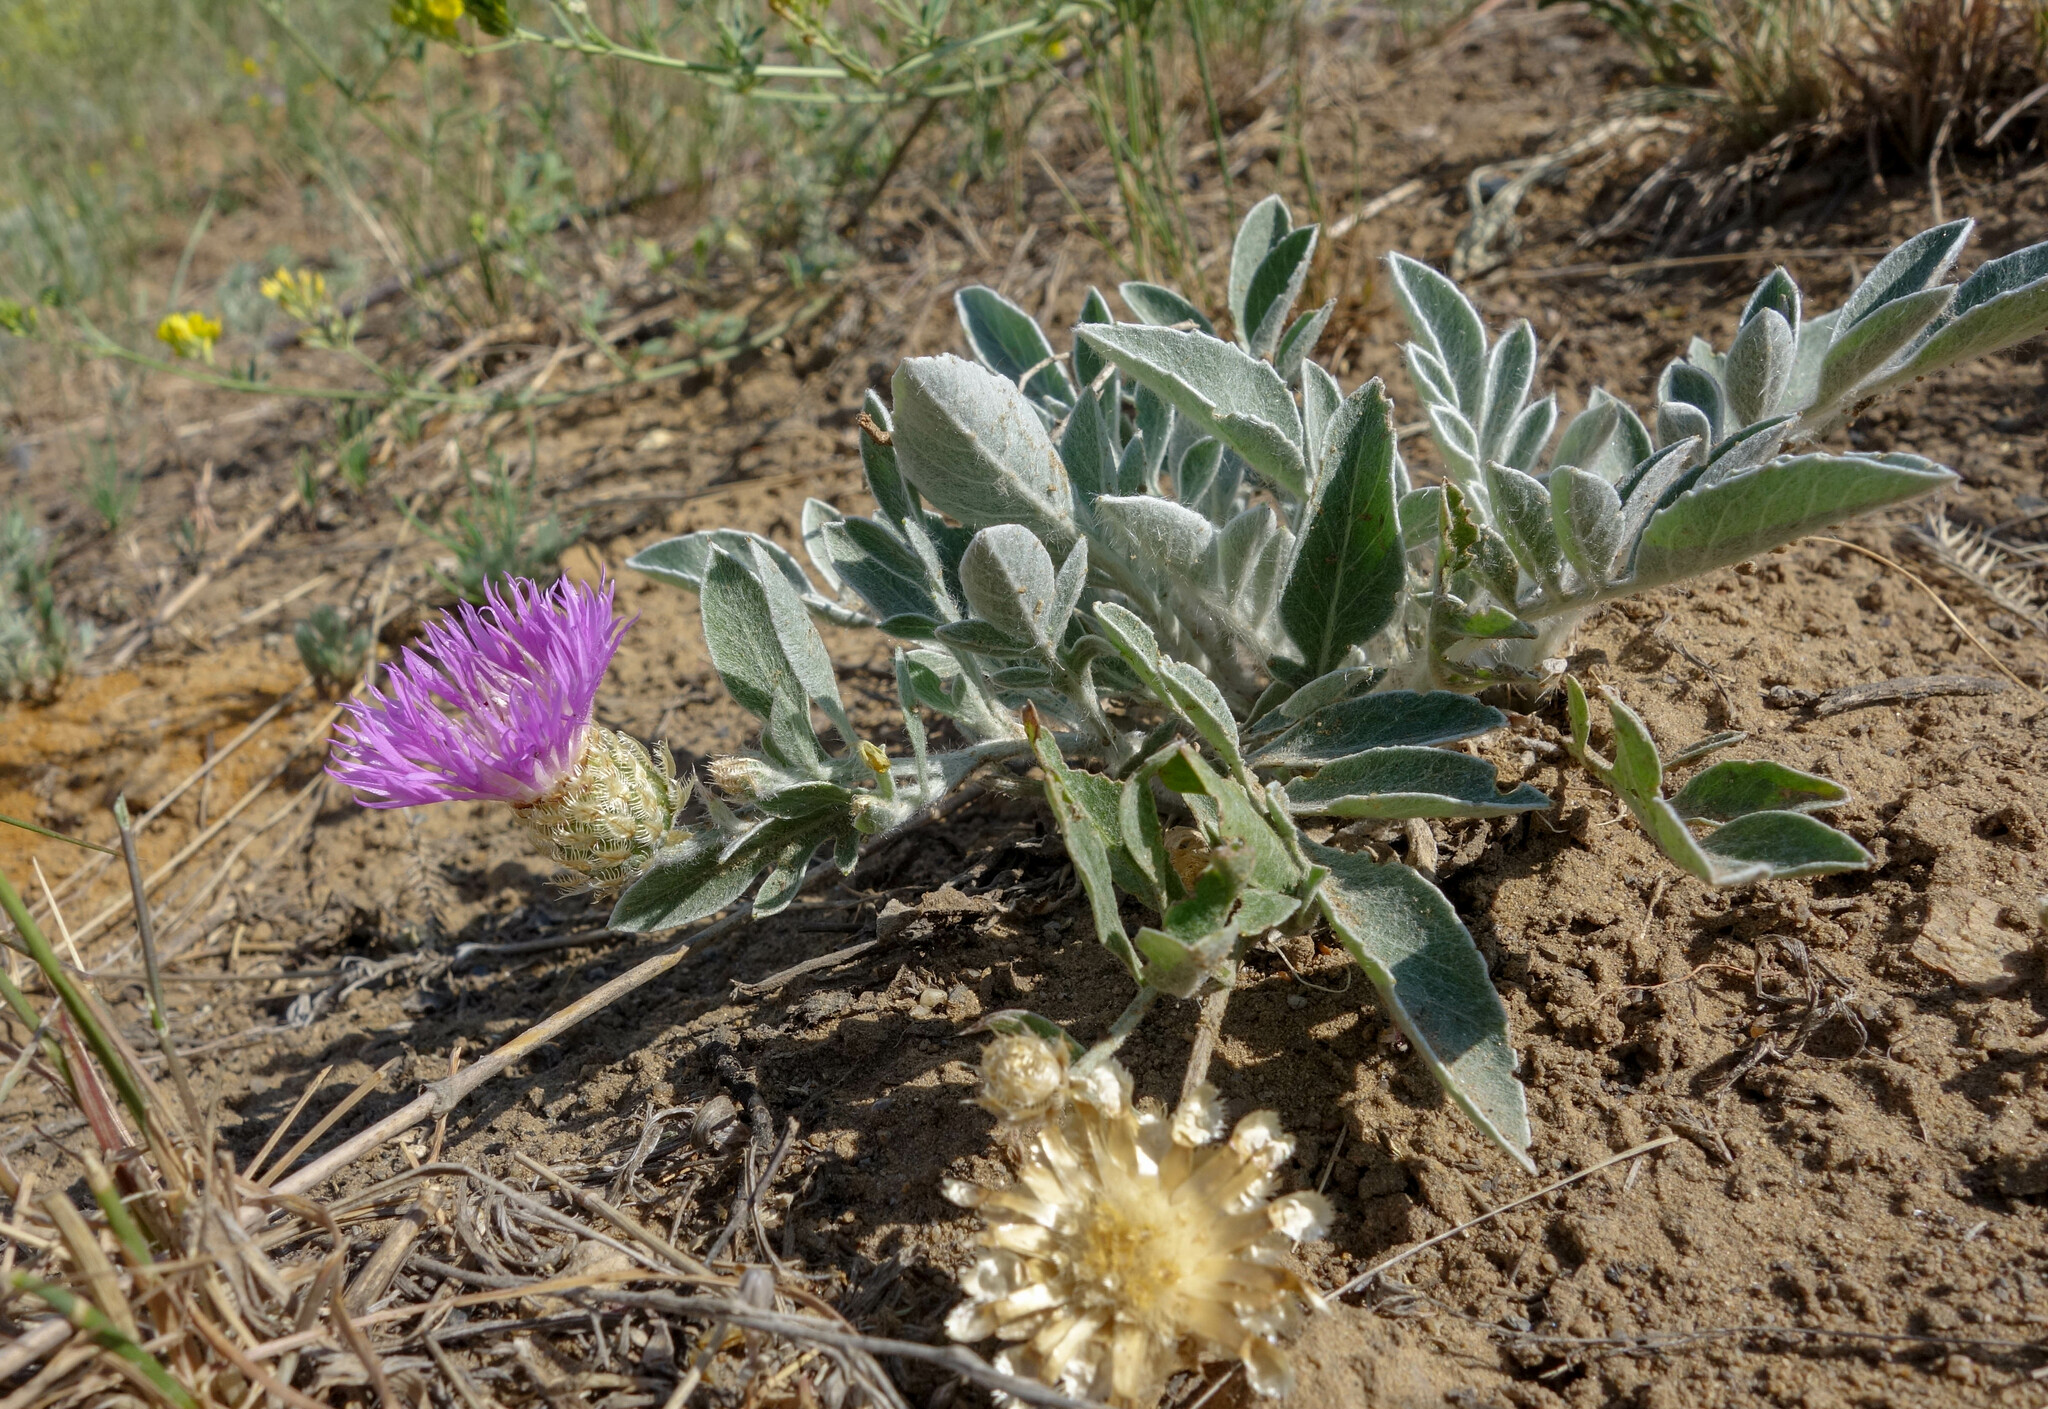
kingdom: Plantae
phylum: Tracheophyta
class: Magnoliopsida
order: Asterales
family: Asteraceae
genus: Psephellus
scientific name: Psephellus marschallianus
